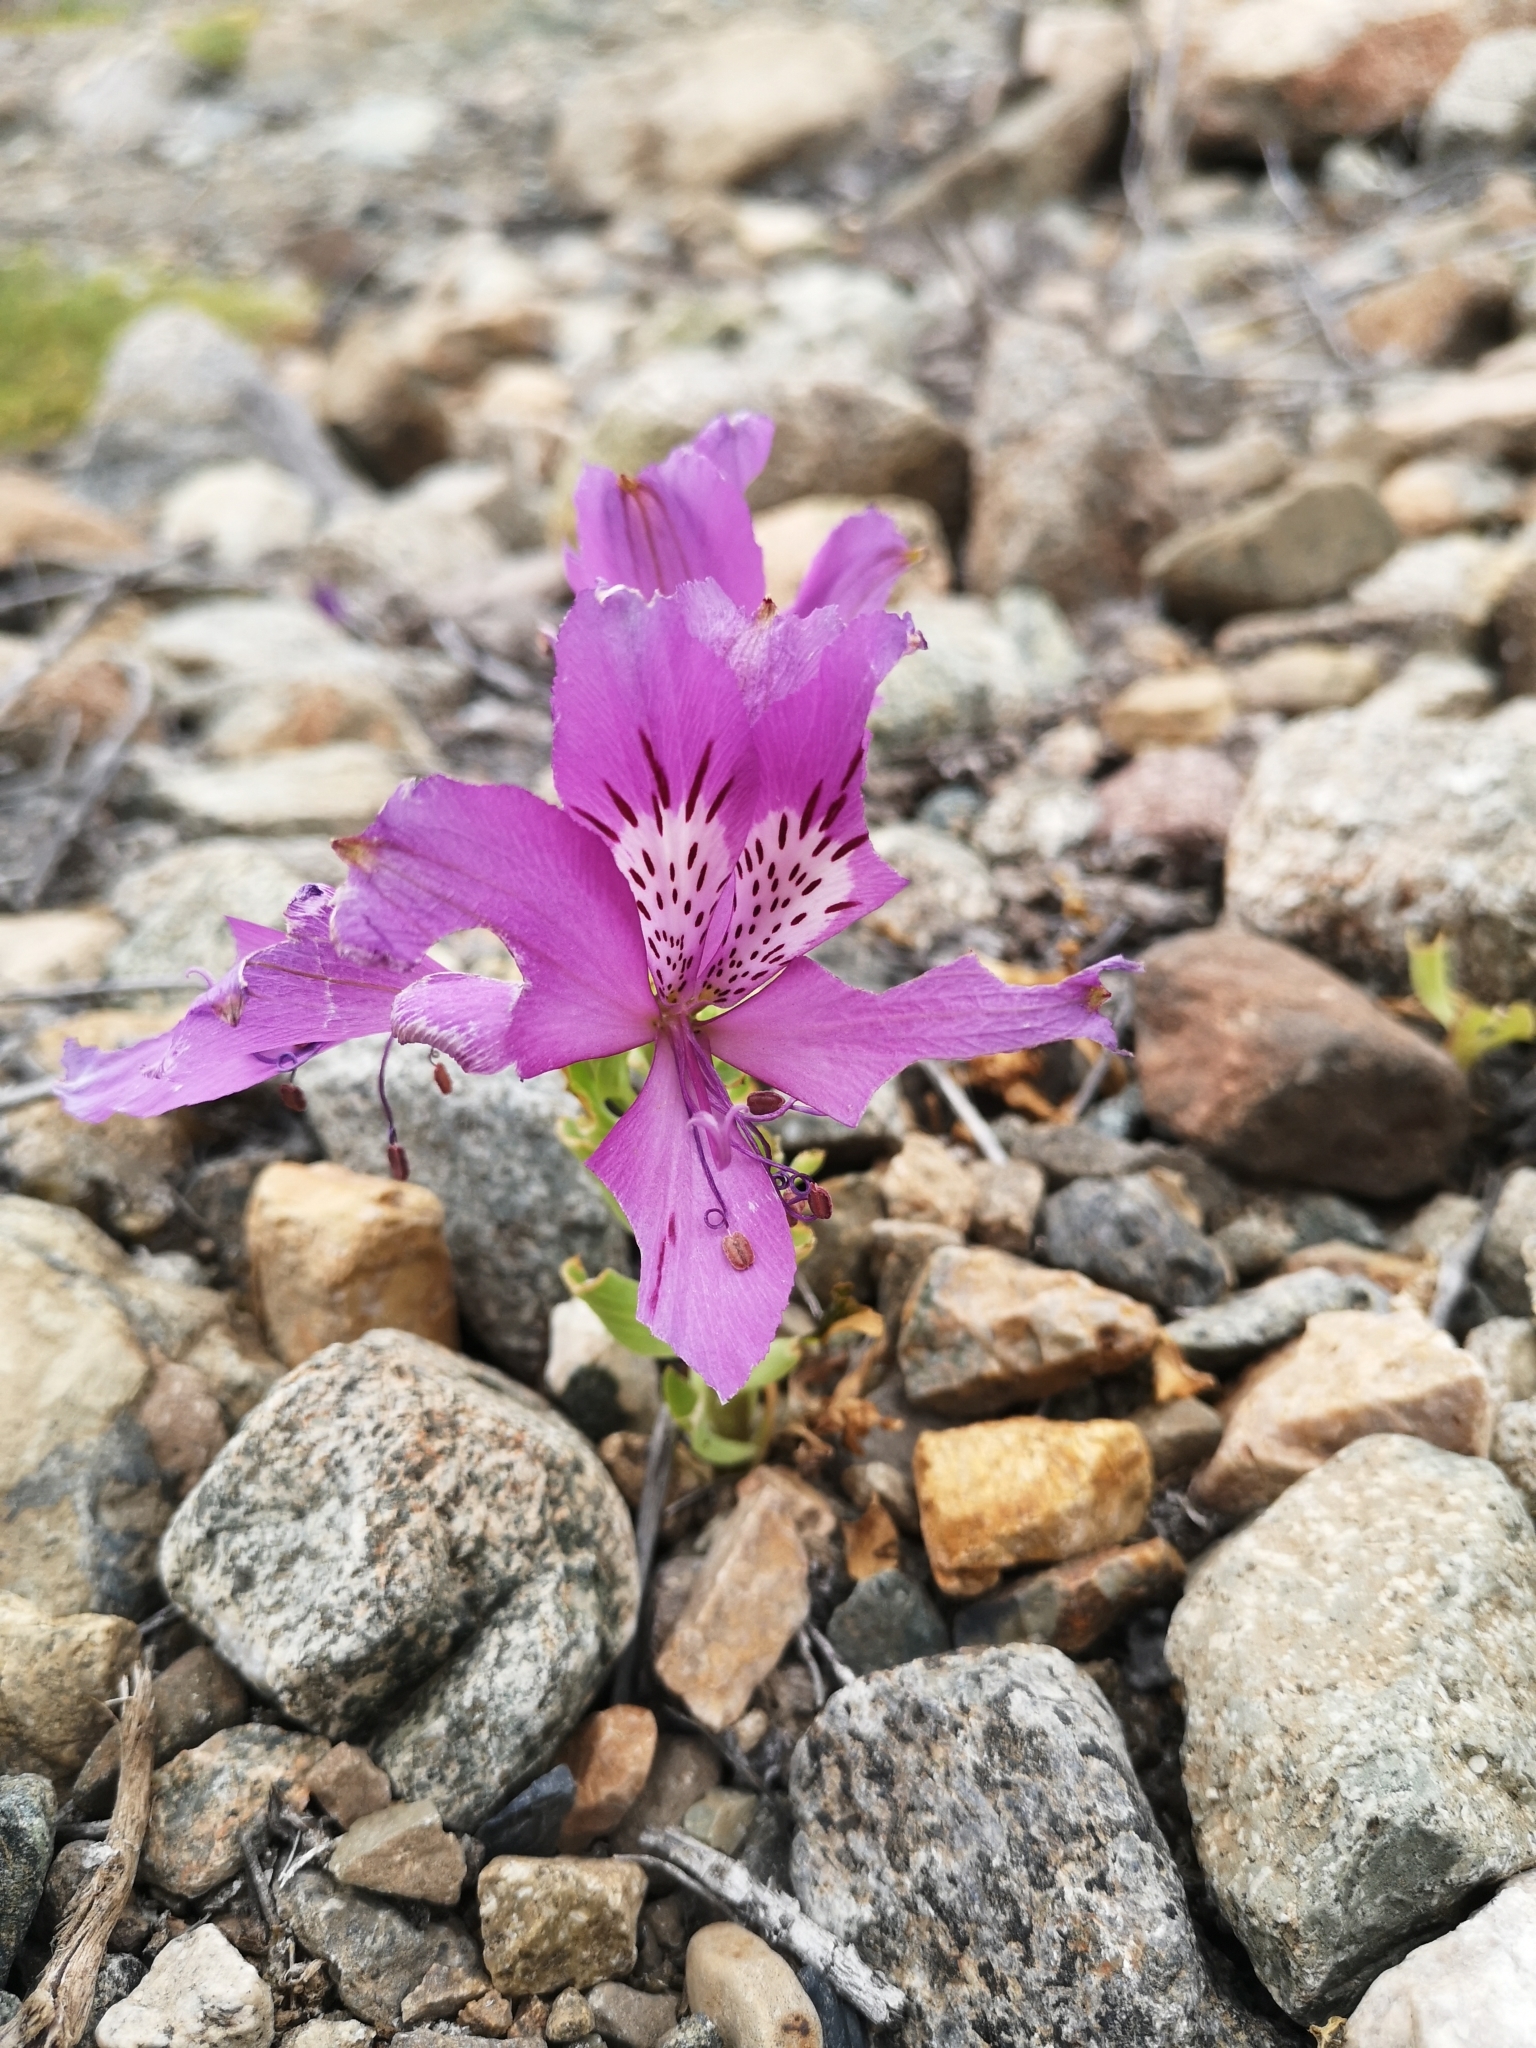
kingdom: Plantae
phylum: Tracheophyta
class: Liliopsida
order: Liliales
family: Alstroemeriaceae
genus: Alstroemeria
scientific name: Alstroemeria violacea
